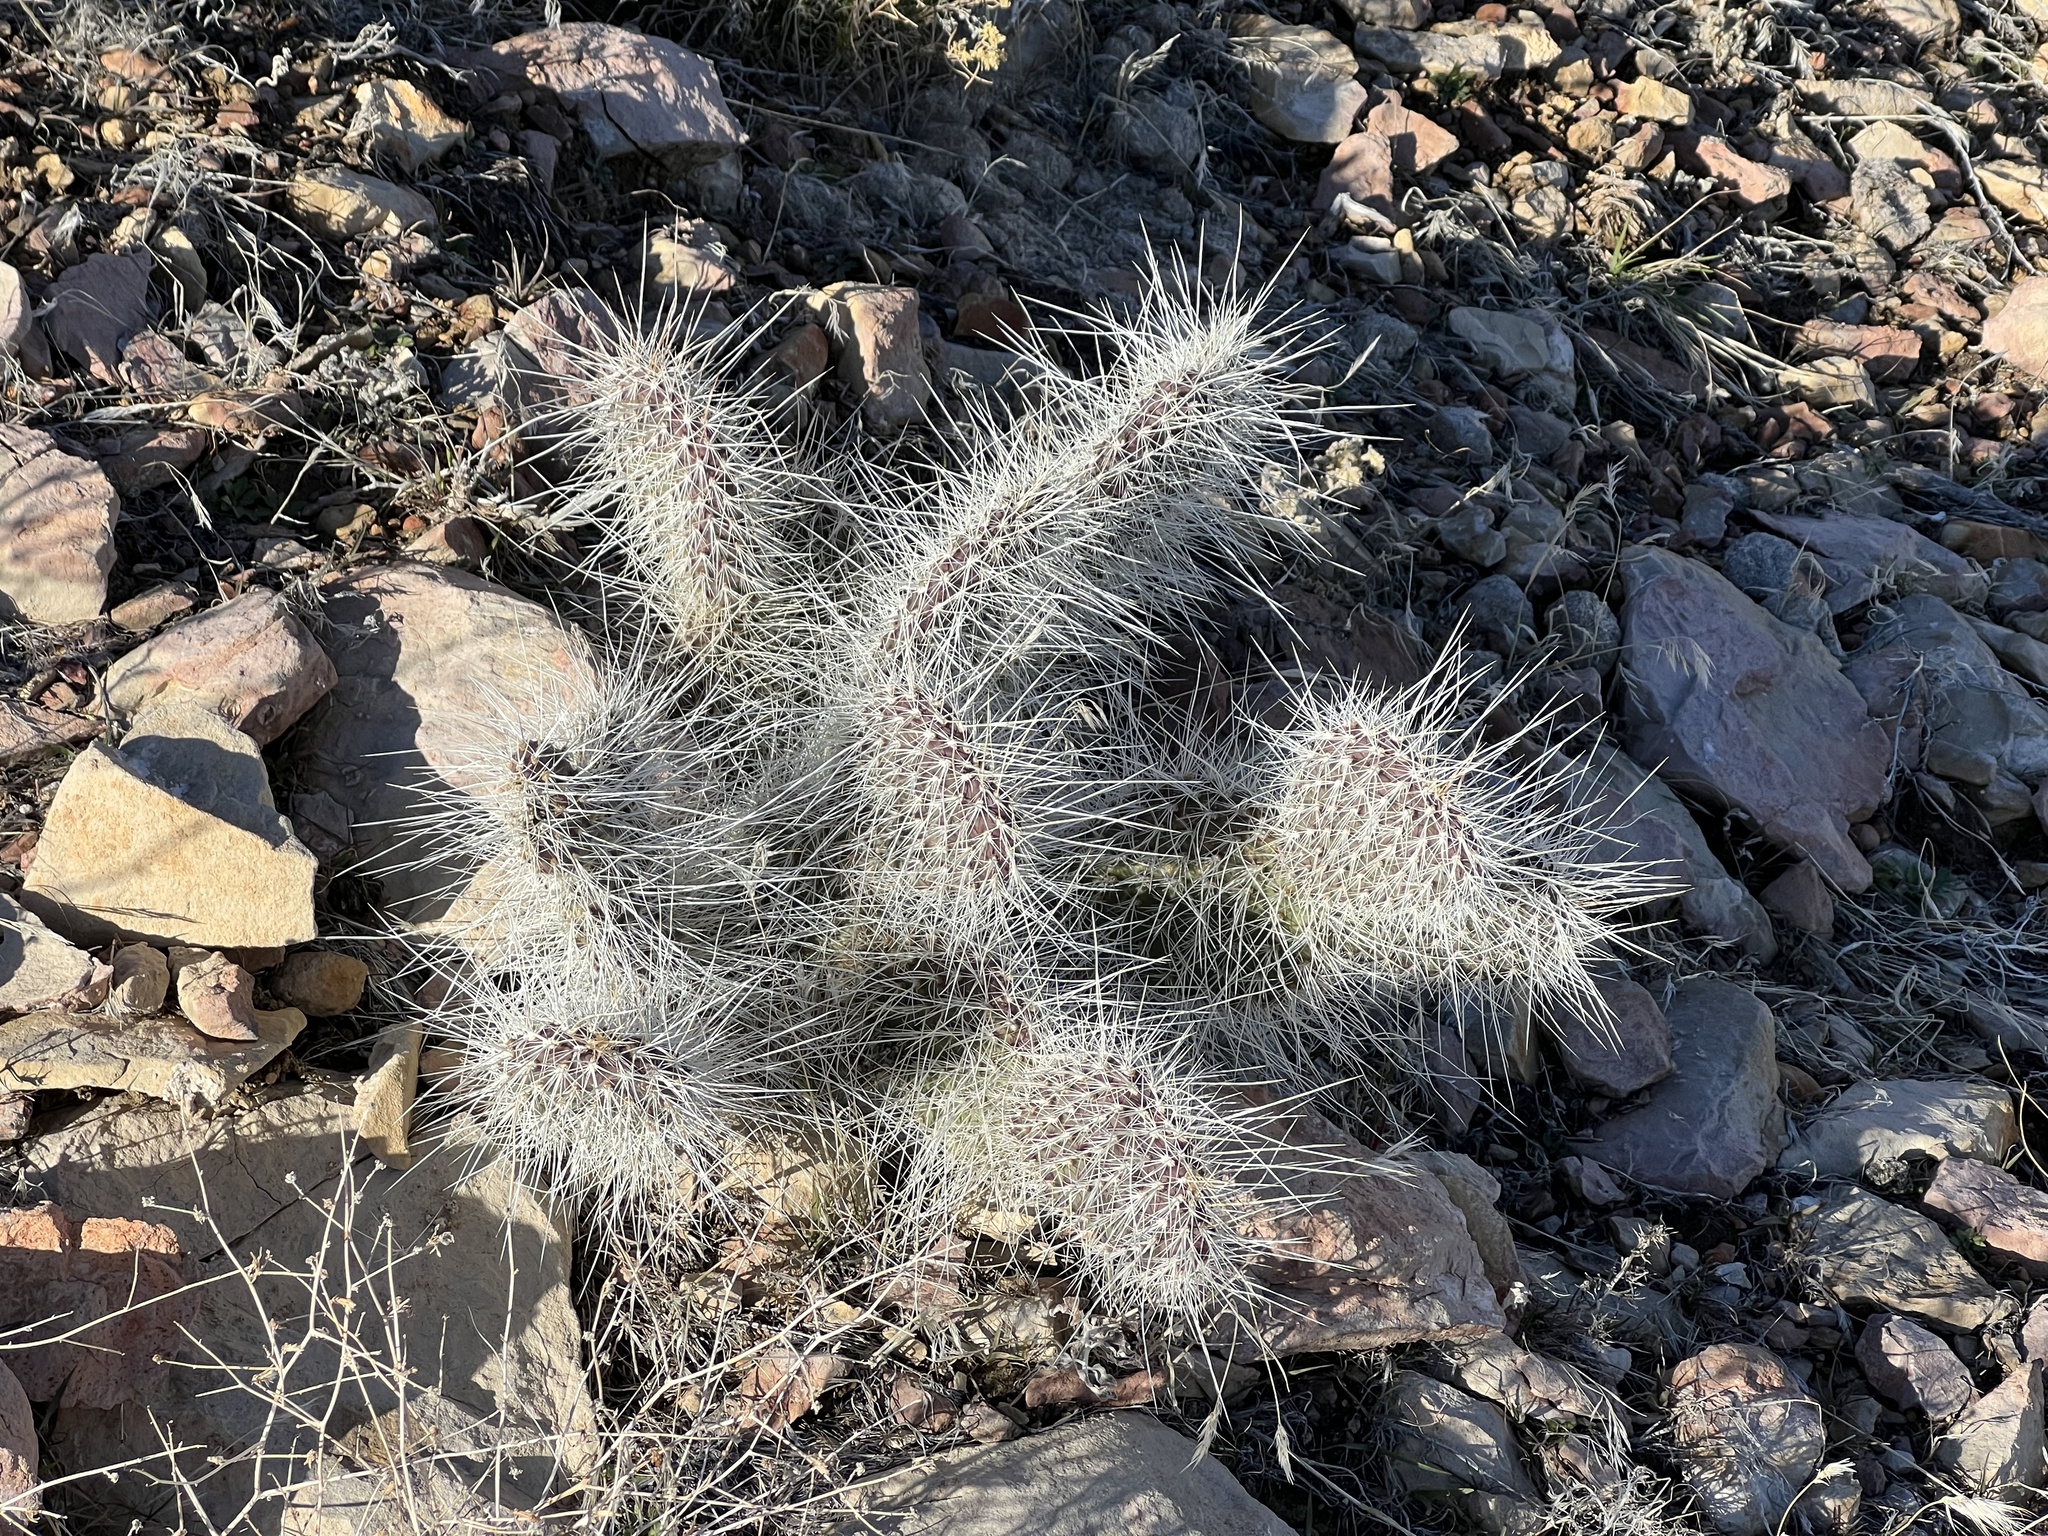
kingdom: Plantae
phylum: Tracheophyta
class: Magnoliopsida
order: Caryophyllales
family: Cactaceae
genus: Opuntia
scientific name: Opuntia polyacantha
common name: Plains prickly-pear
